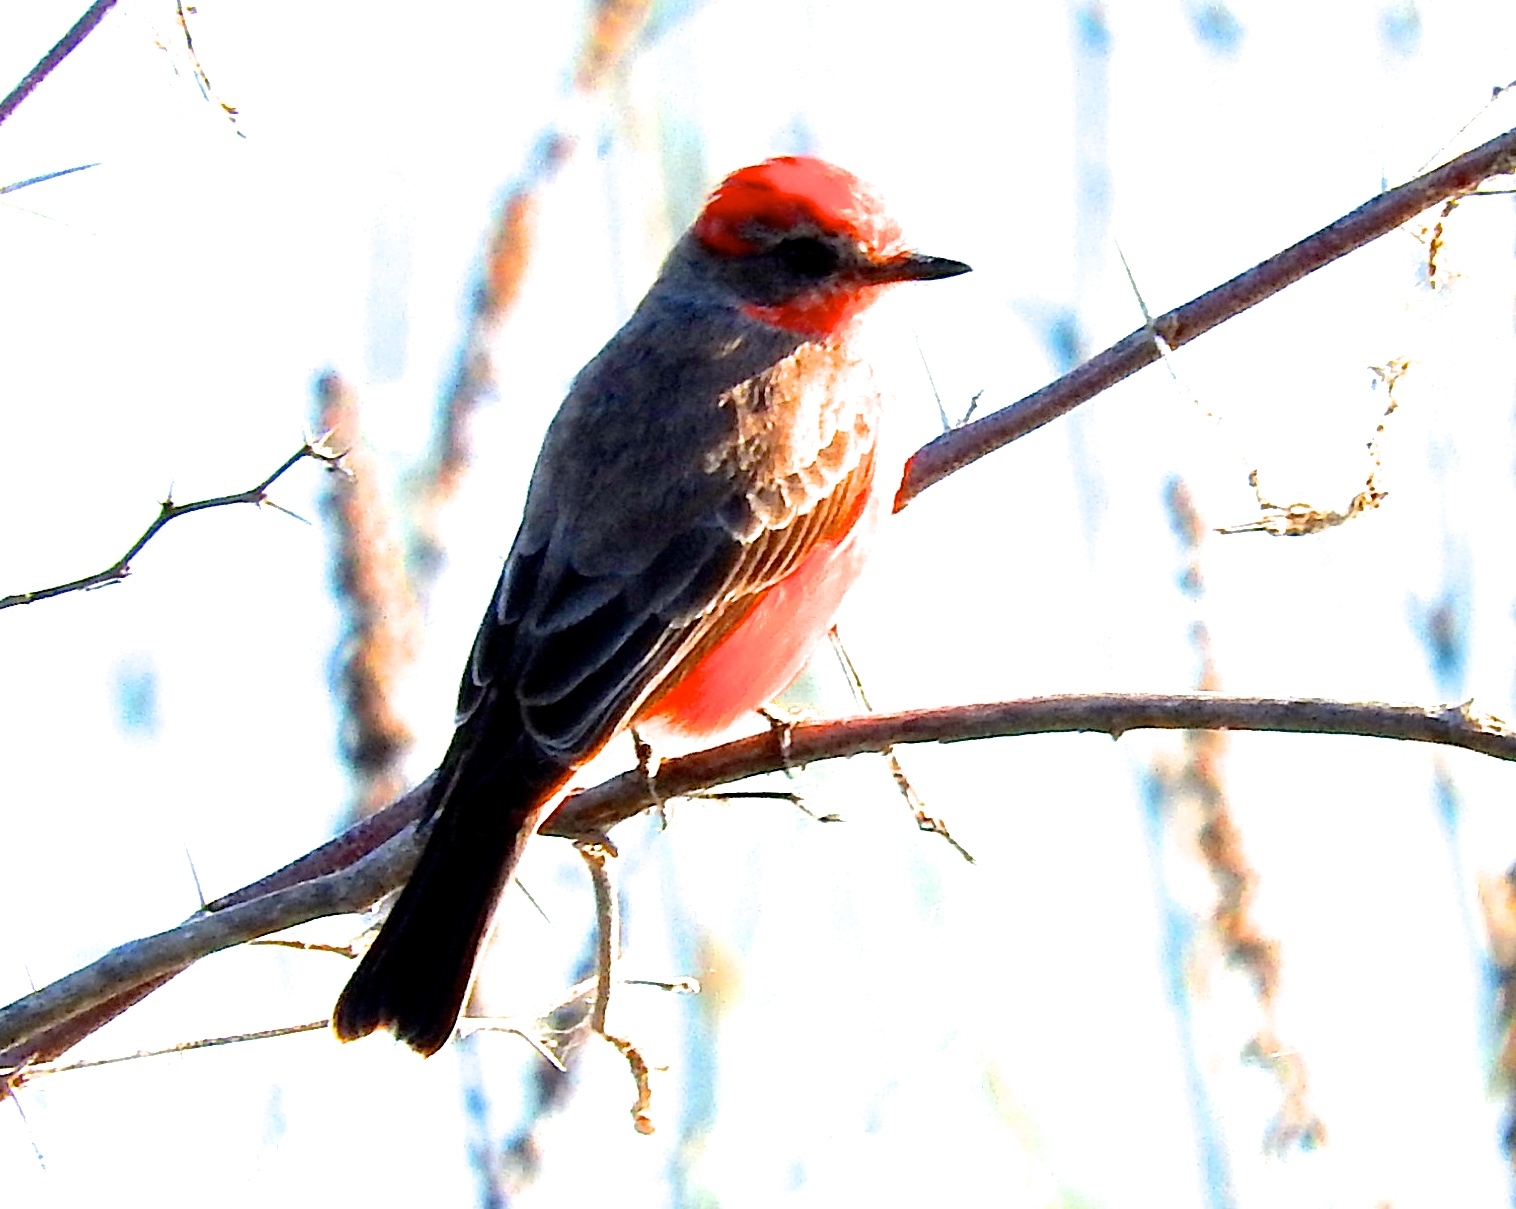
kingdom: Animalia
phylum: Chordata
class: Aves
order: Passeriformes
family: Tyrannidae
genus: Pyrocephalus
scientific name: Pyrocephalus rubinus
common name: Vermilion flycatcher
